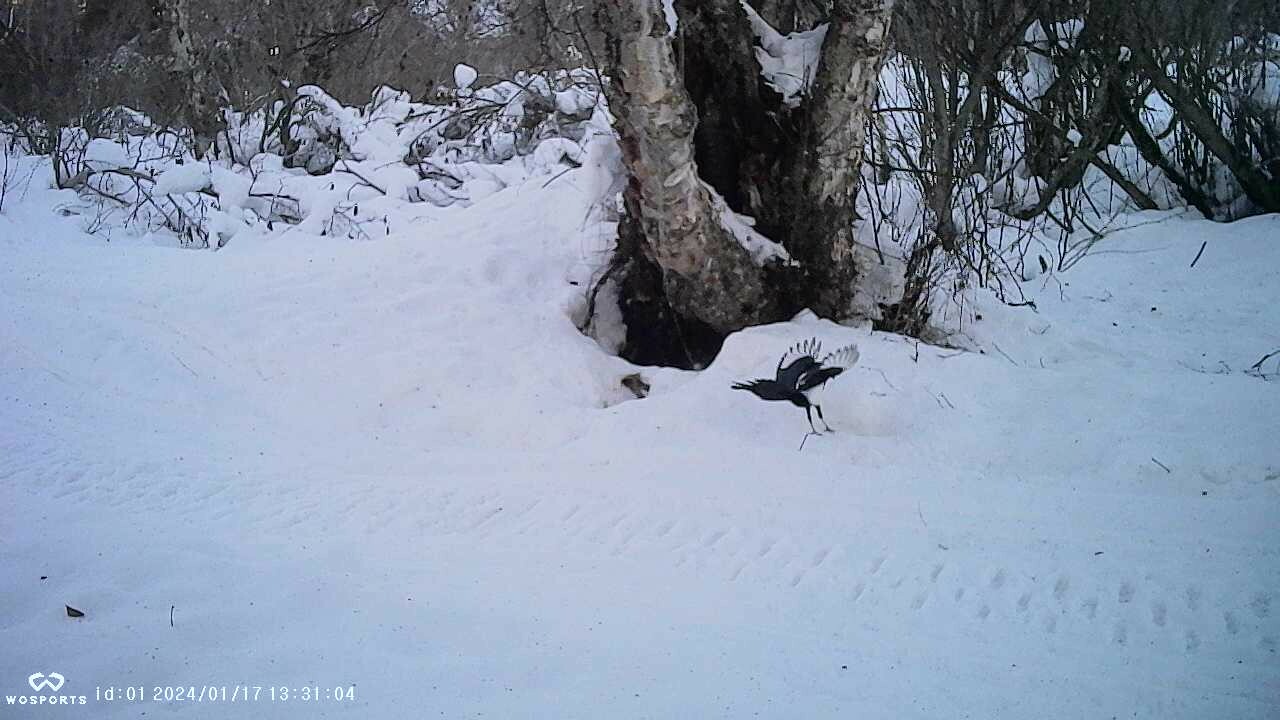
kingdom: Animalia
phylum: Chordata
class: Aves
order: Passeriformes
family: Corvidae
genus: Pica
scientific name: Pica hudsonia
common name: Black-billed magpie
